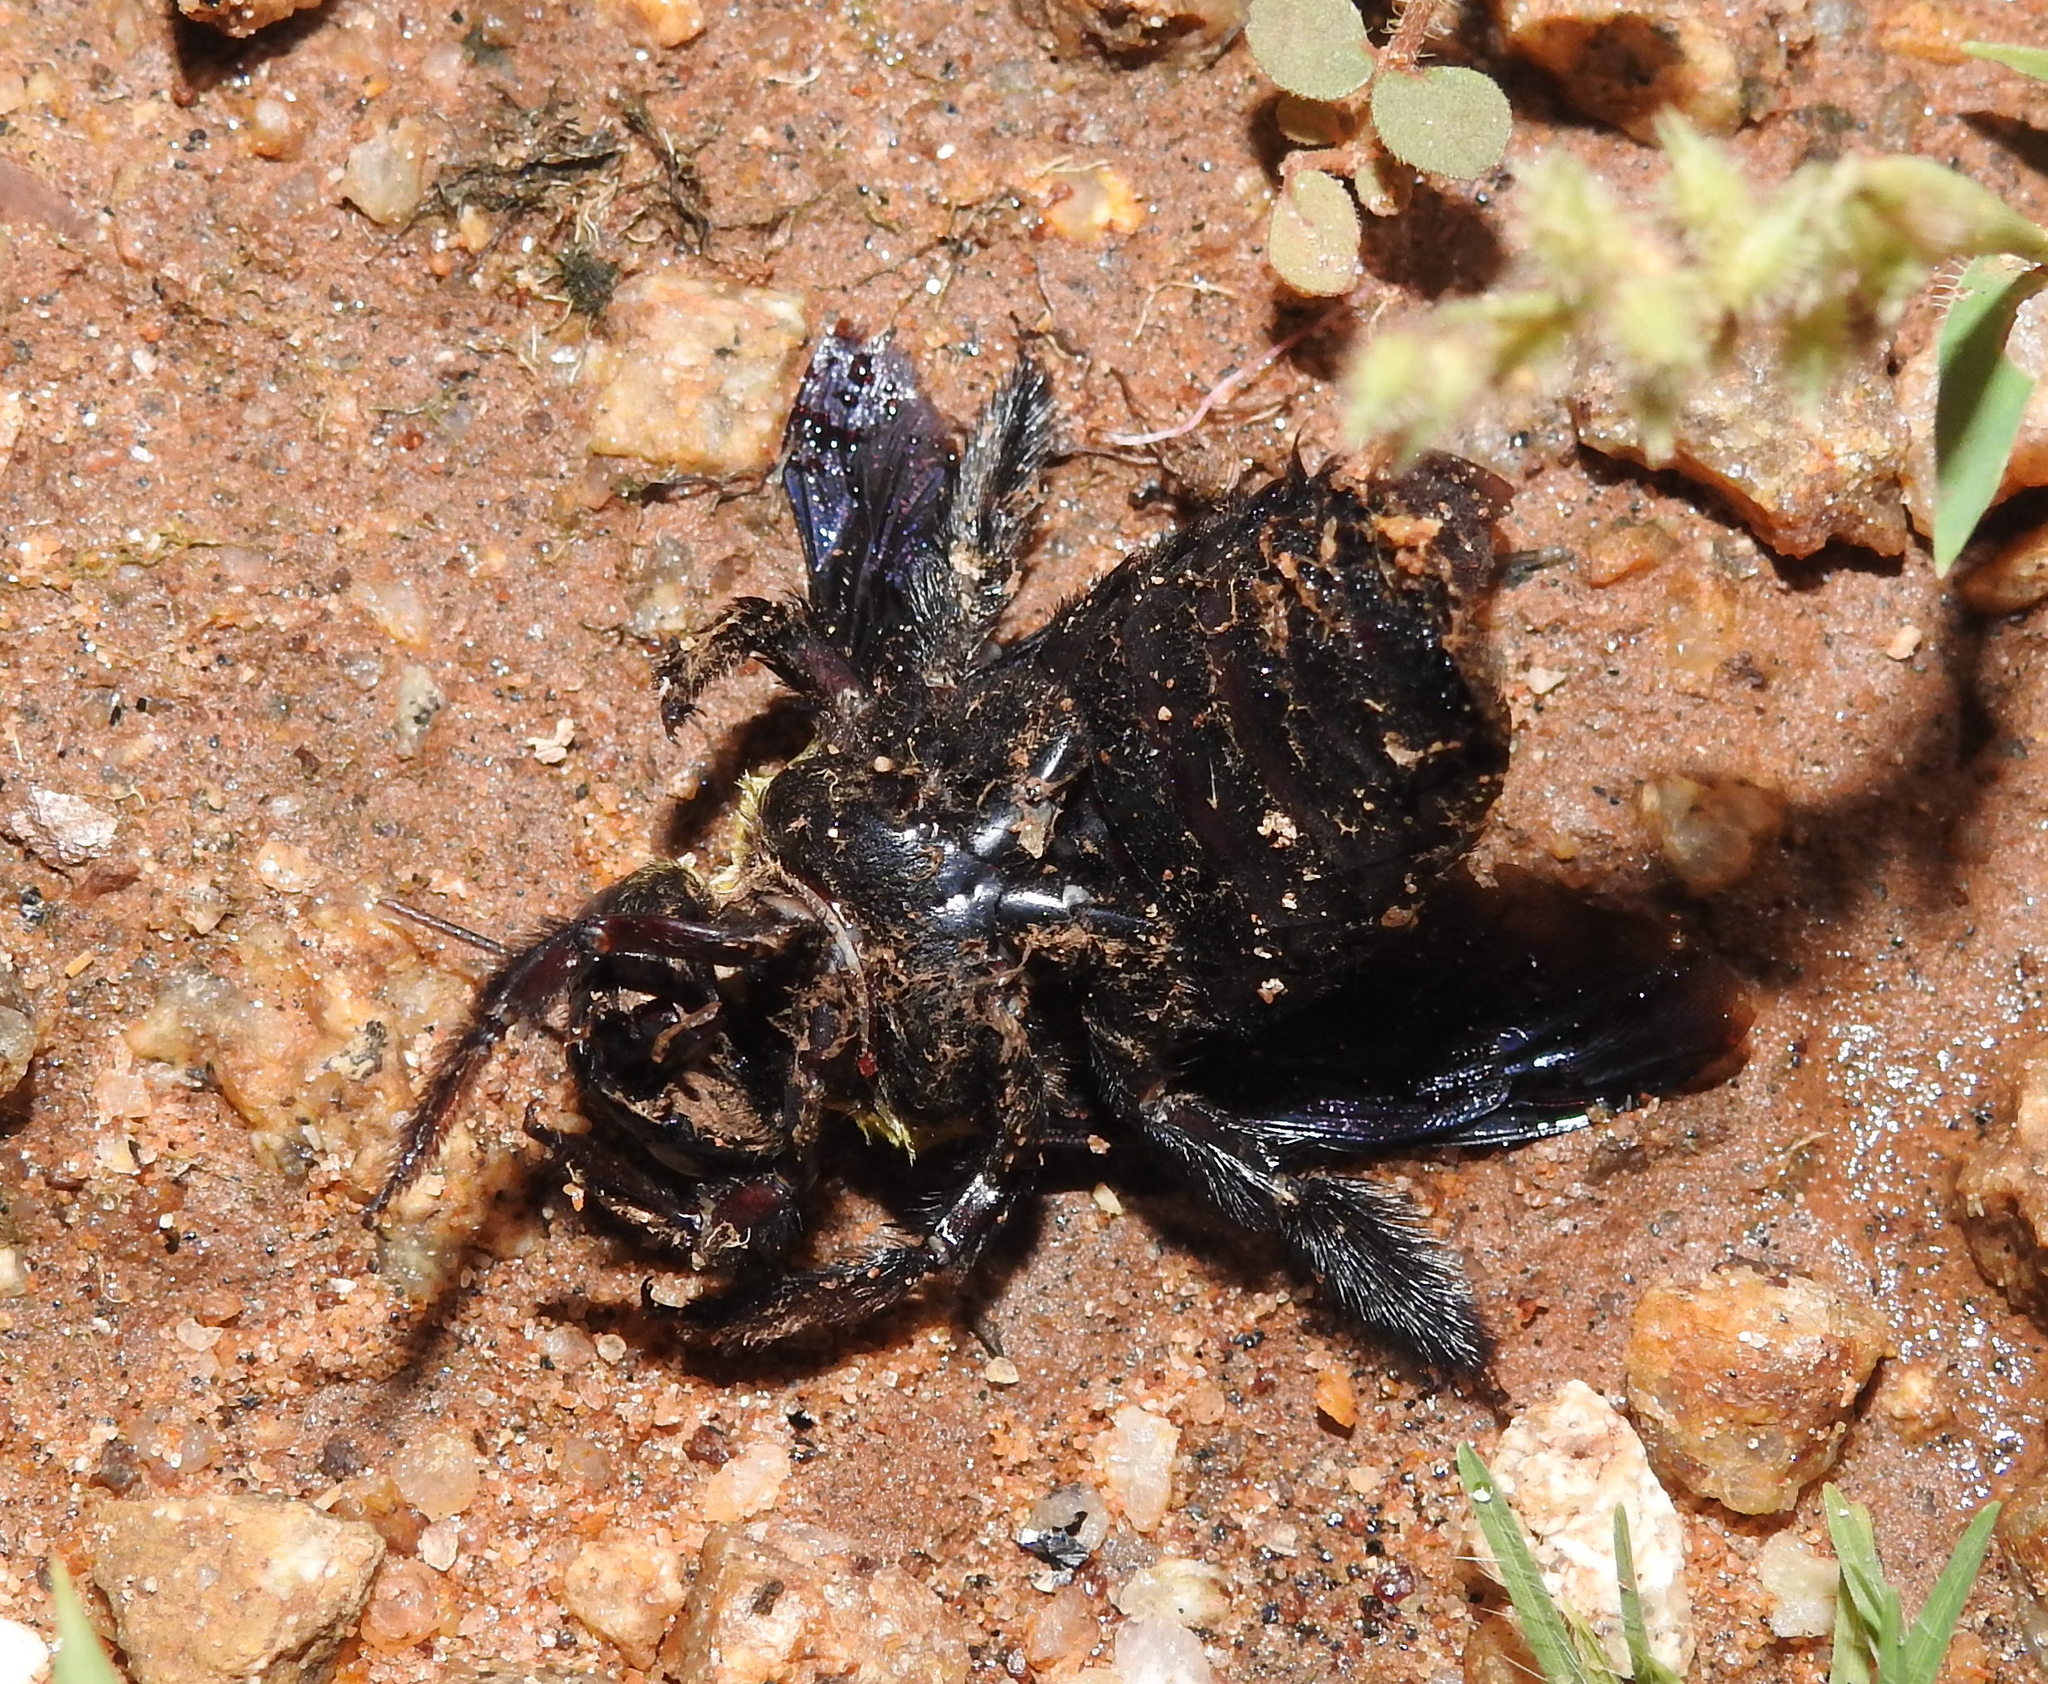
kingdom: Animalia
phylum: Arthropoda
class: Insecta
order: Hymenoptera
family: Apidae
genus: Xylocopa
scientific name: Xylocopa ruficornis
